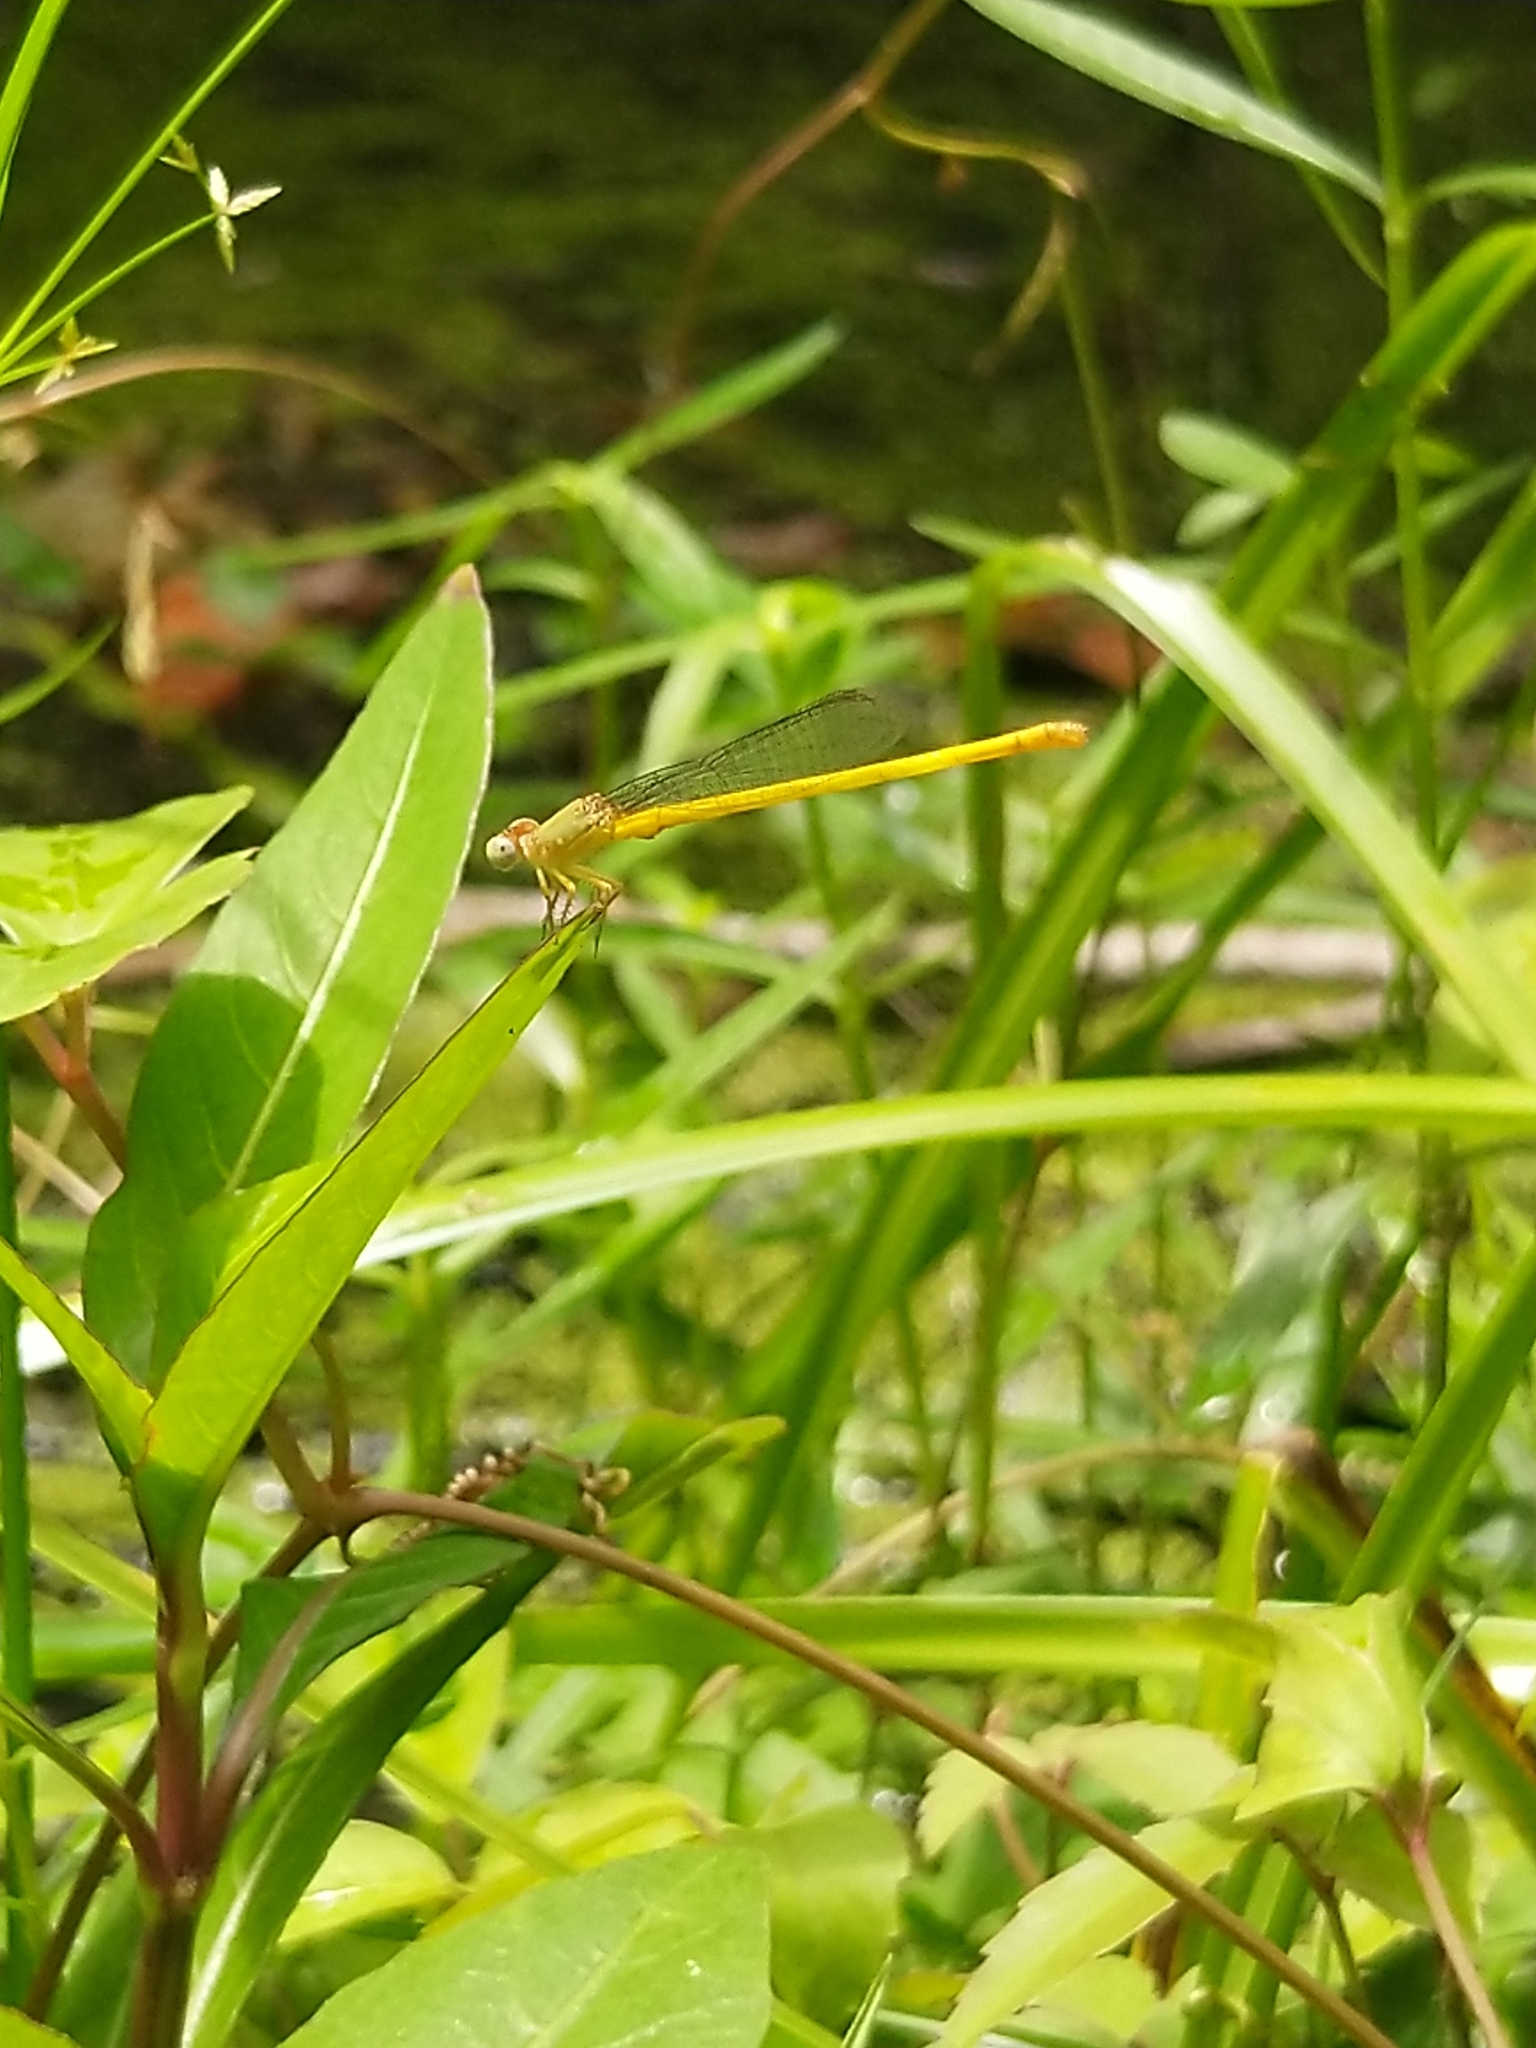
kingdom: Animalia
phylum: Arthropoda
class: Insecta
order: Odonata
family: Coenagrionidae
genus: Ceriagrion
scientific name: Ceriagrion coromandelianum
